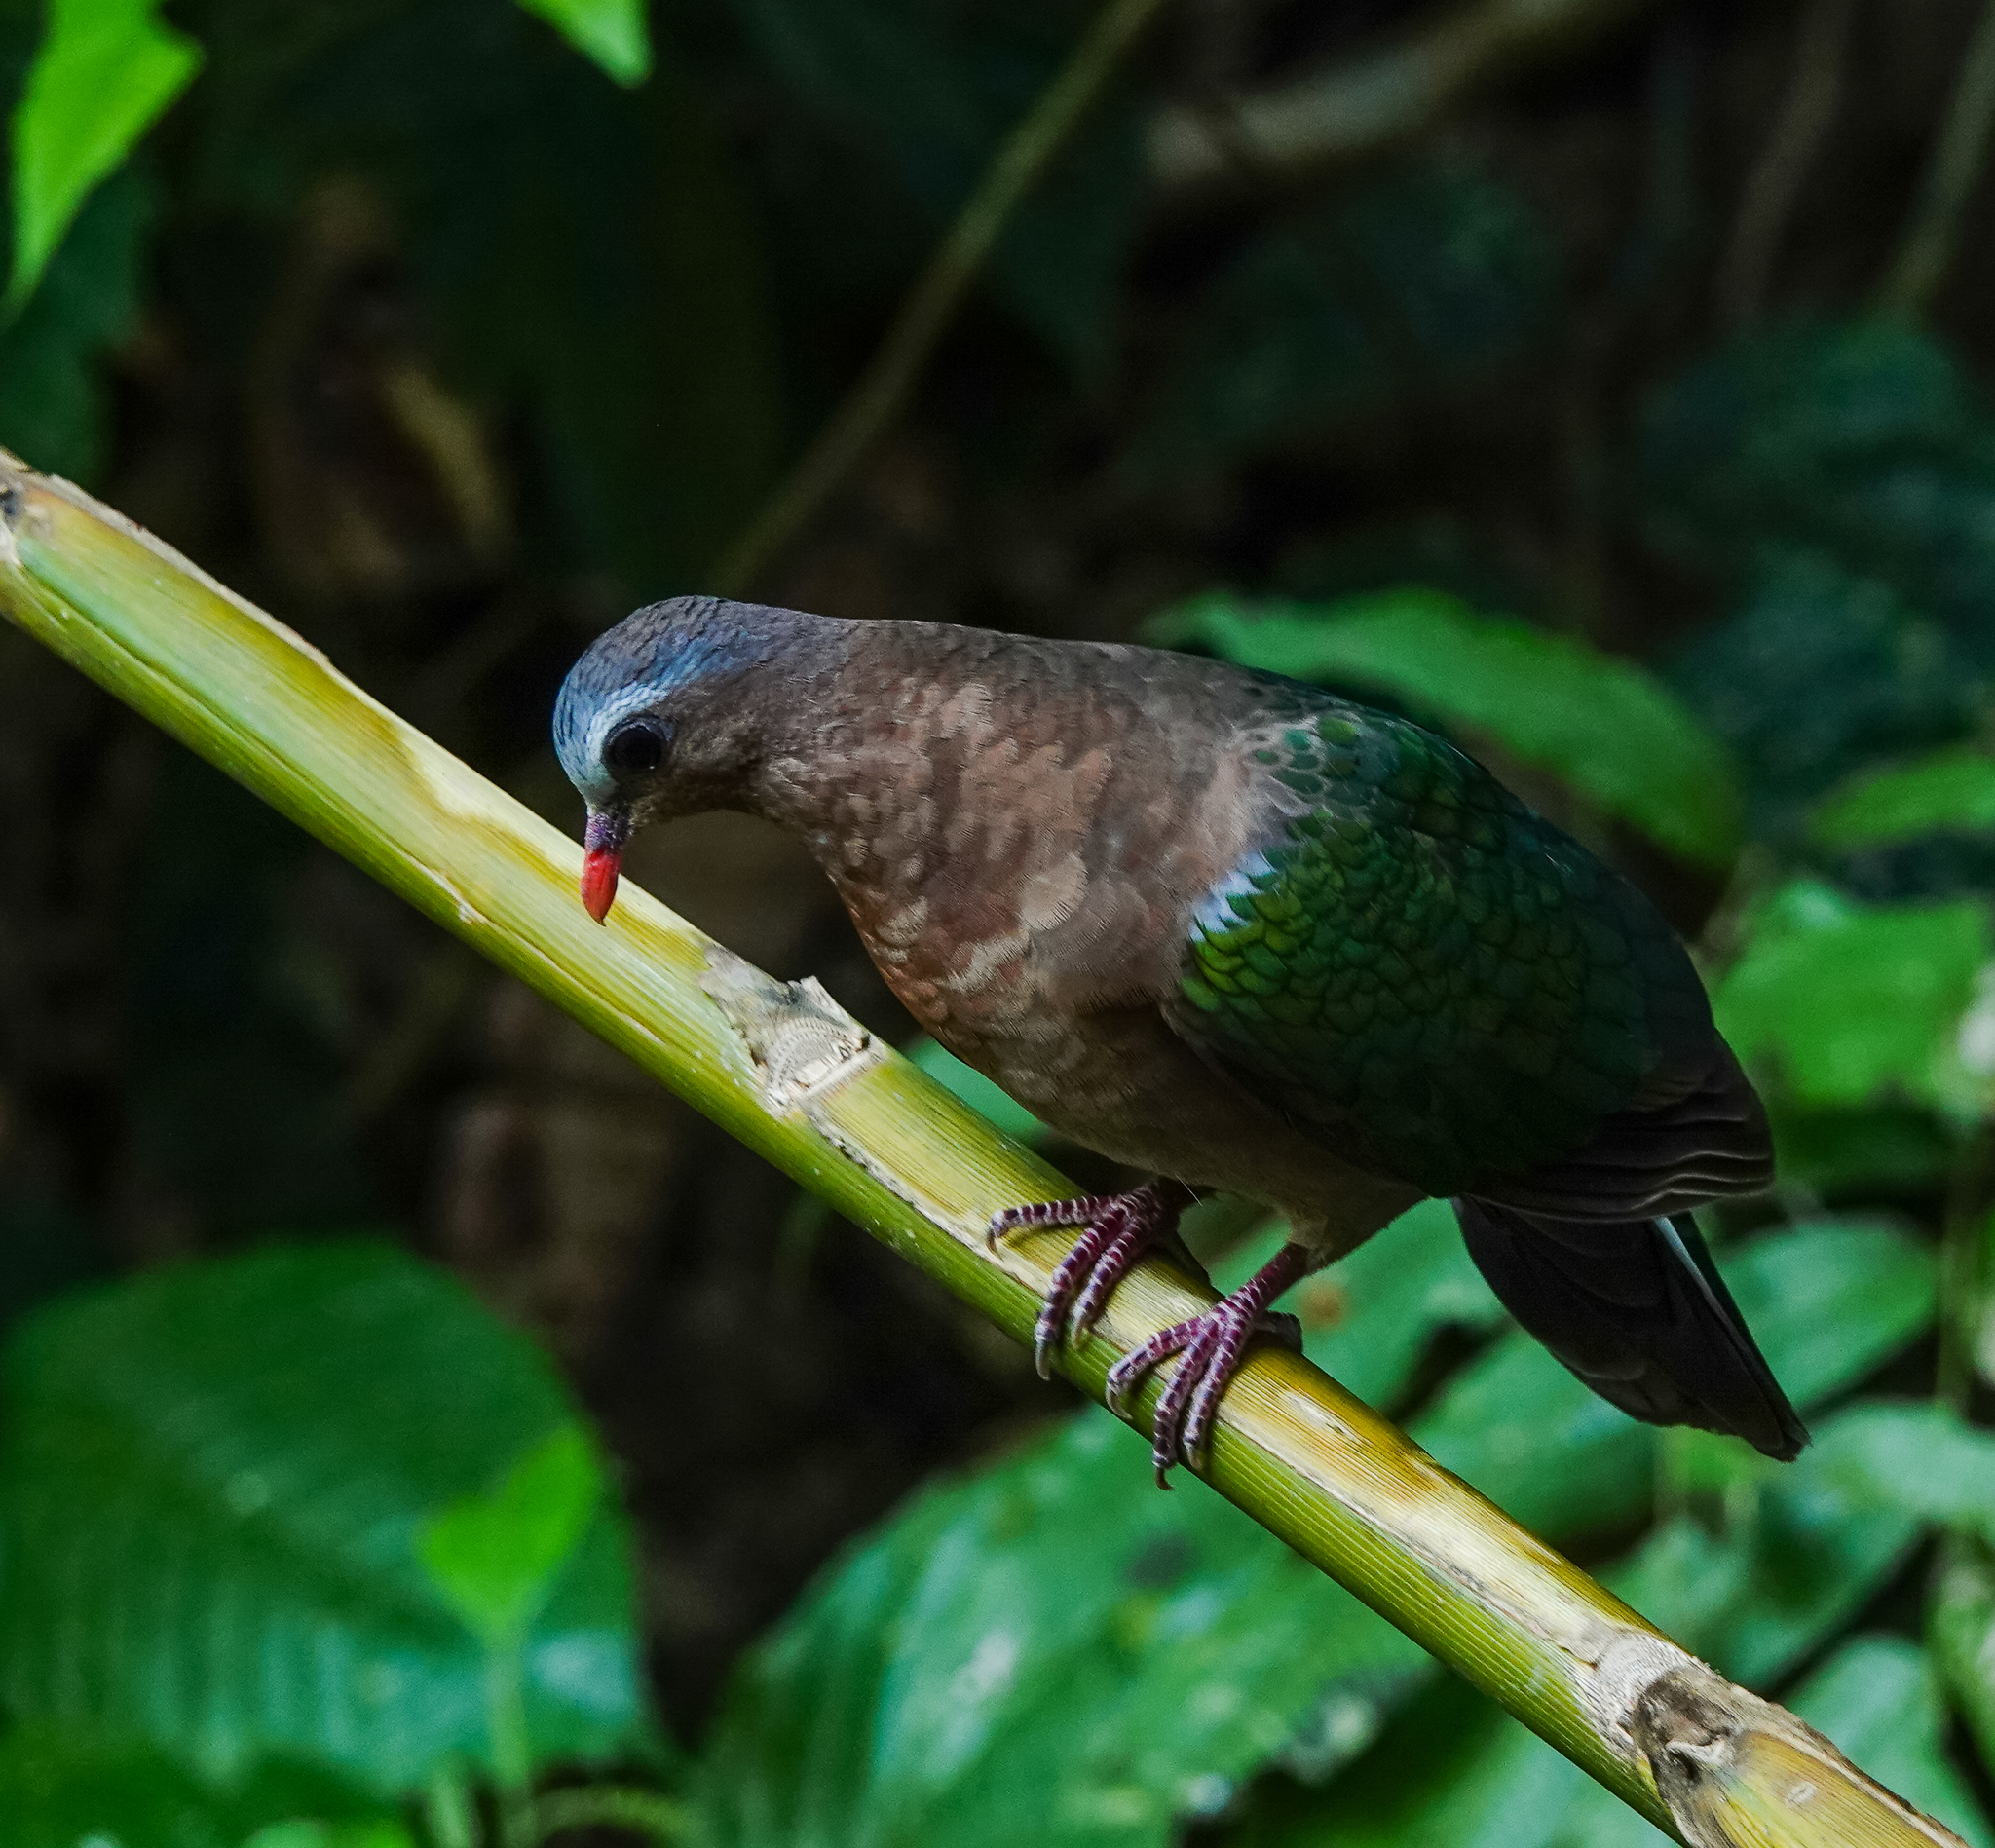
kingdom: Animalia
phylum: Chordata
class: Aves
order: Columbiformes
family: Columbidae
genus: Chalcophaps
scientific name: Chalcophaps indica
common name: Common emerald dove
